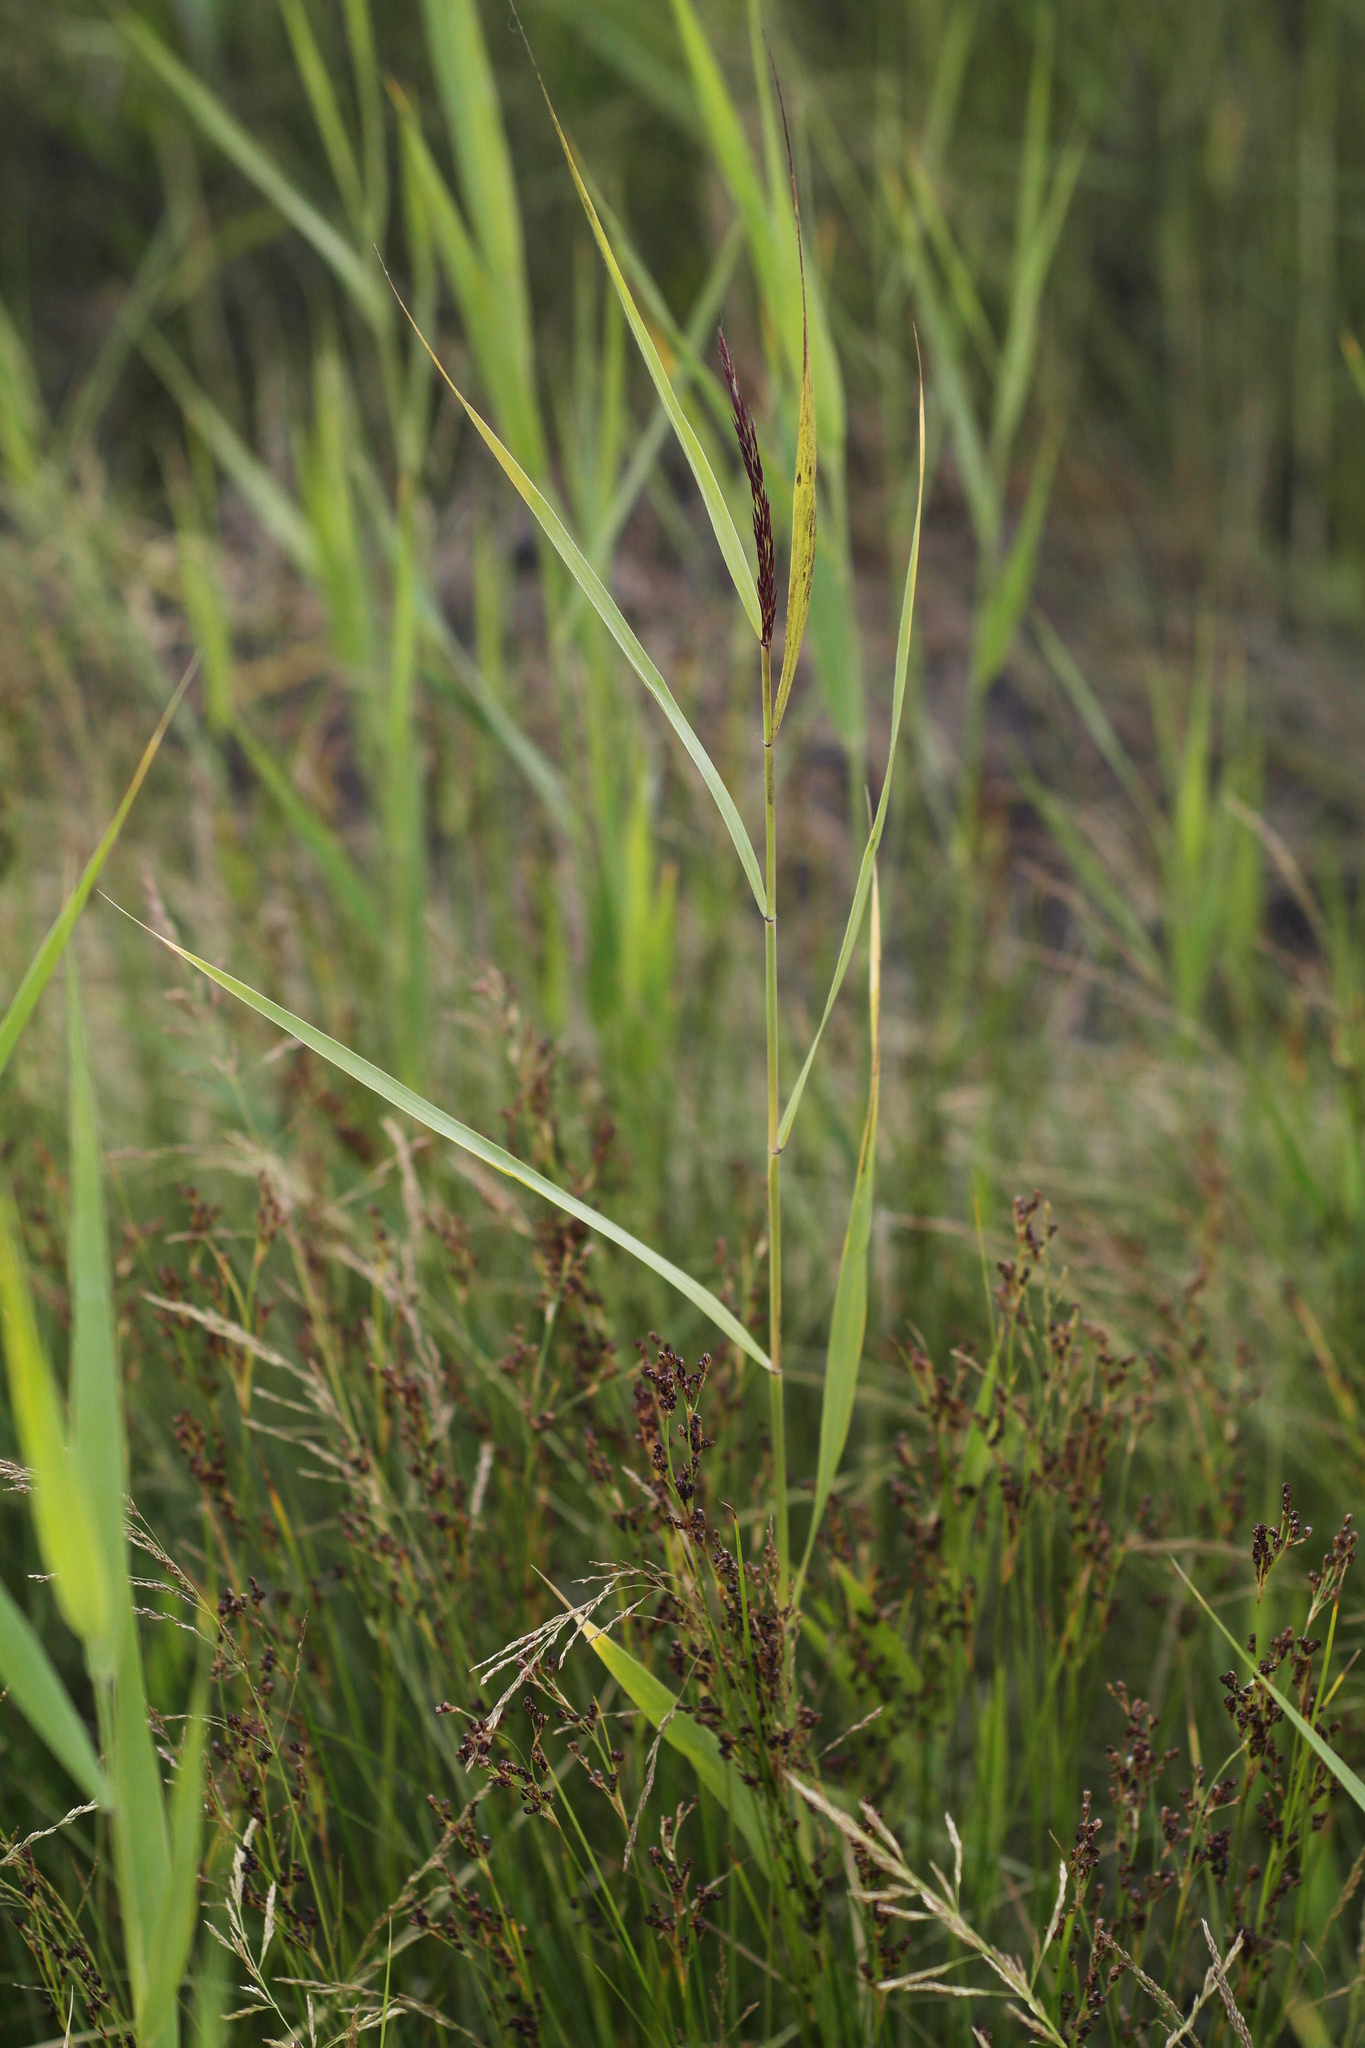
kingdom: Plantae
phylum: Tracheophyta
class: Liliopsida
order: Poales
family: Poaceae
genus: Phragmites
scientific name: Phragmites australis
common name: Common reed
